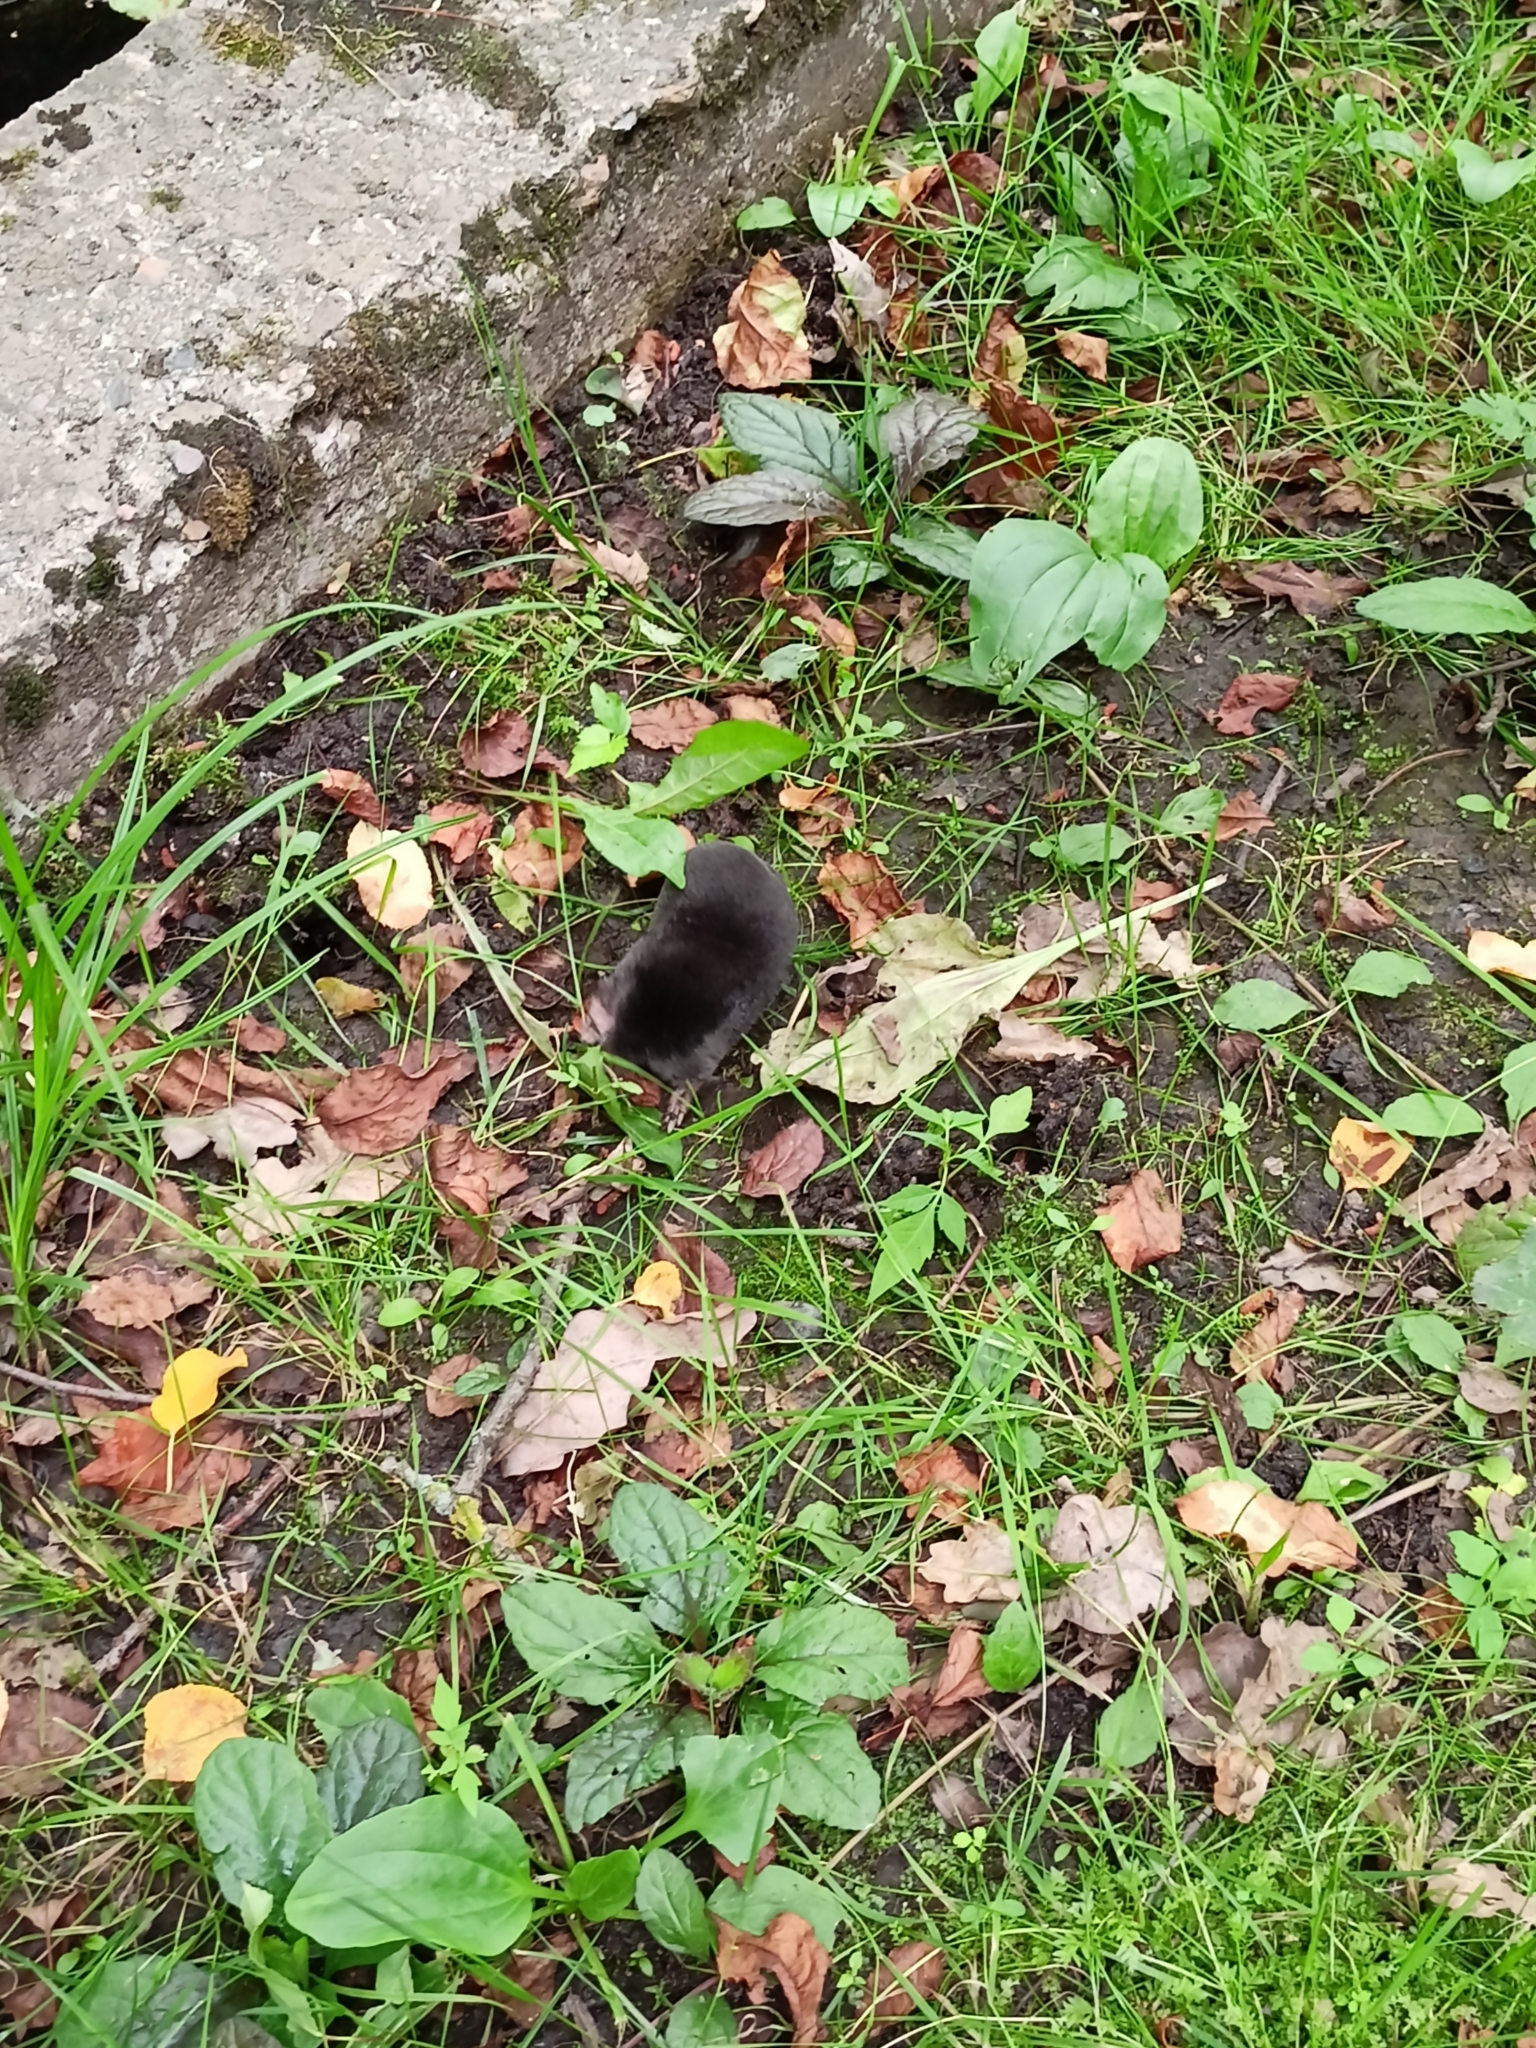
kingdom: Animalia
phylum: Chordata
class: Mammalia
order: Soricomorpha
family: Talpidae
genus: Talpa
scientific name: Talpa europaea
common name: European mole
